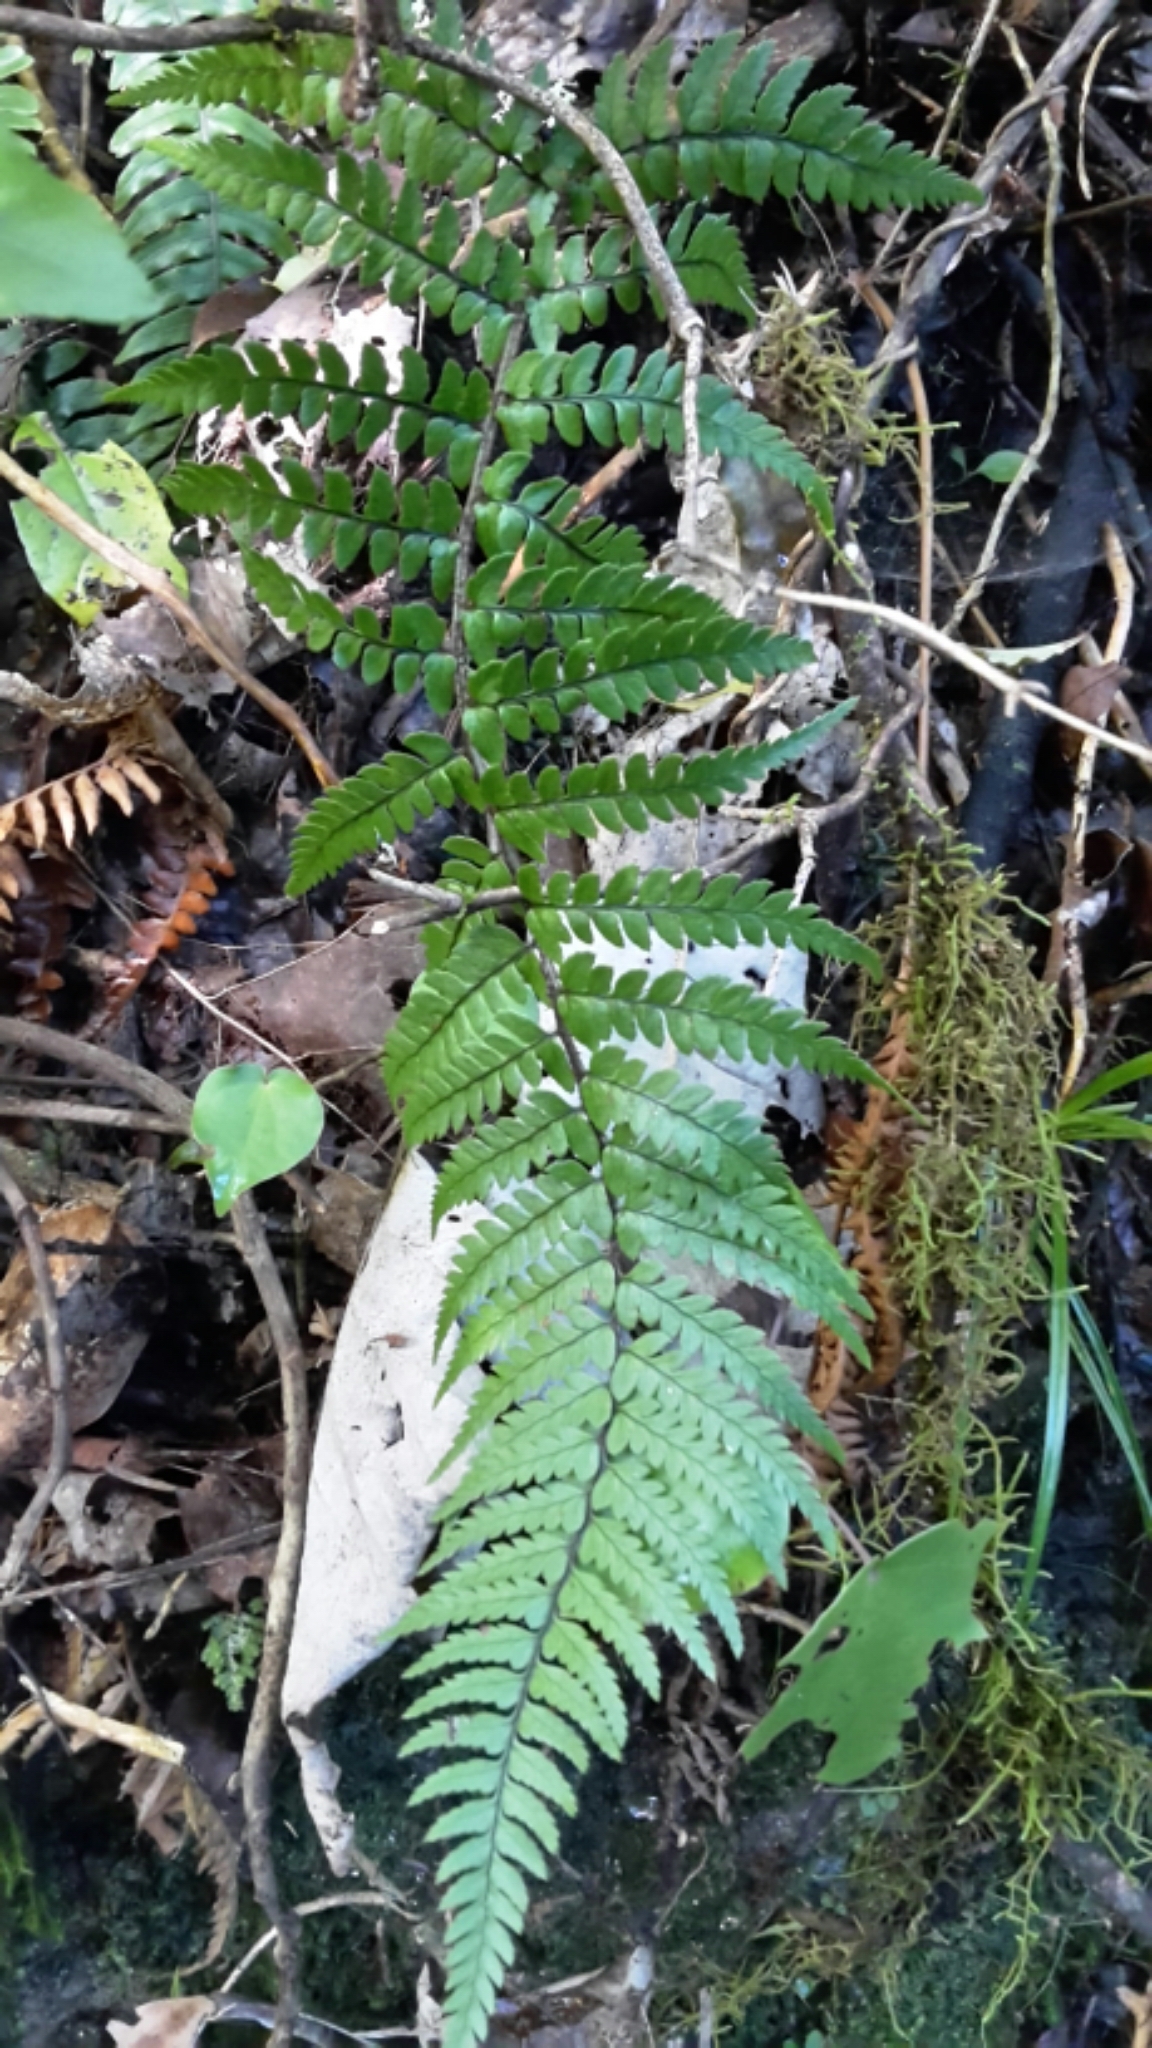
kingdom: Plantae
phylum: Tracheophyta
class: Polypodiopsida
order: Polypodiales
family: Dryopteridaceae
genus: Polystichum
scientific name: Polystichum wawranum
